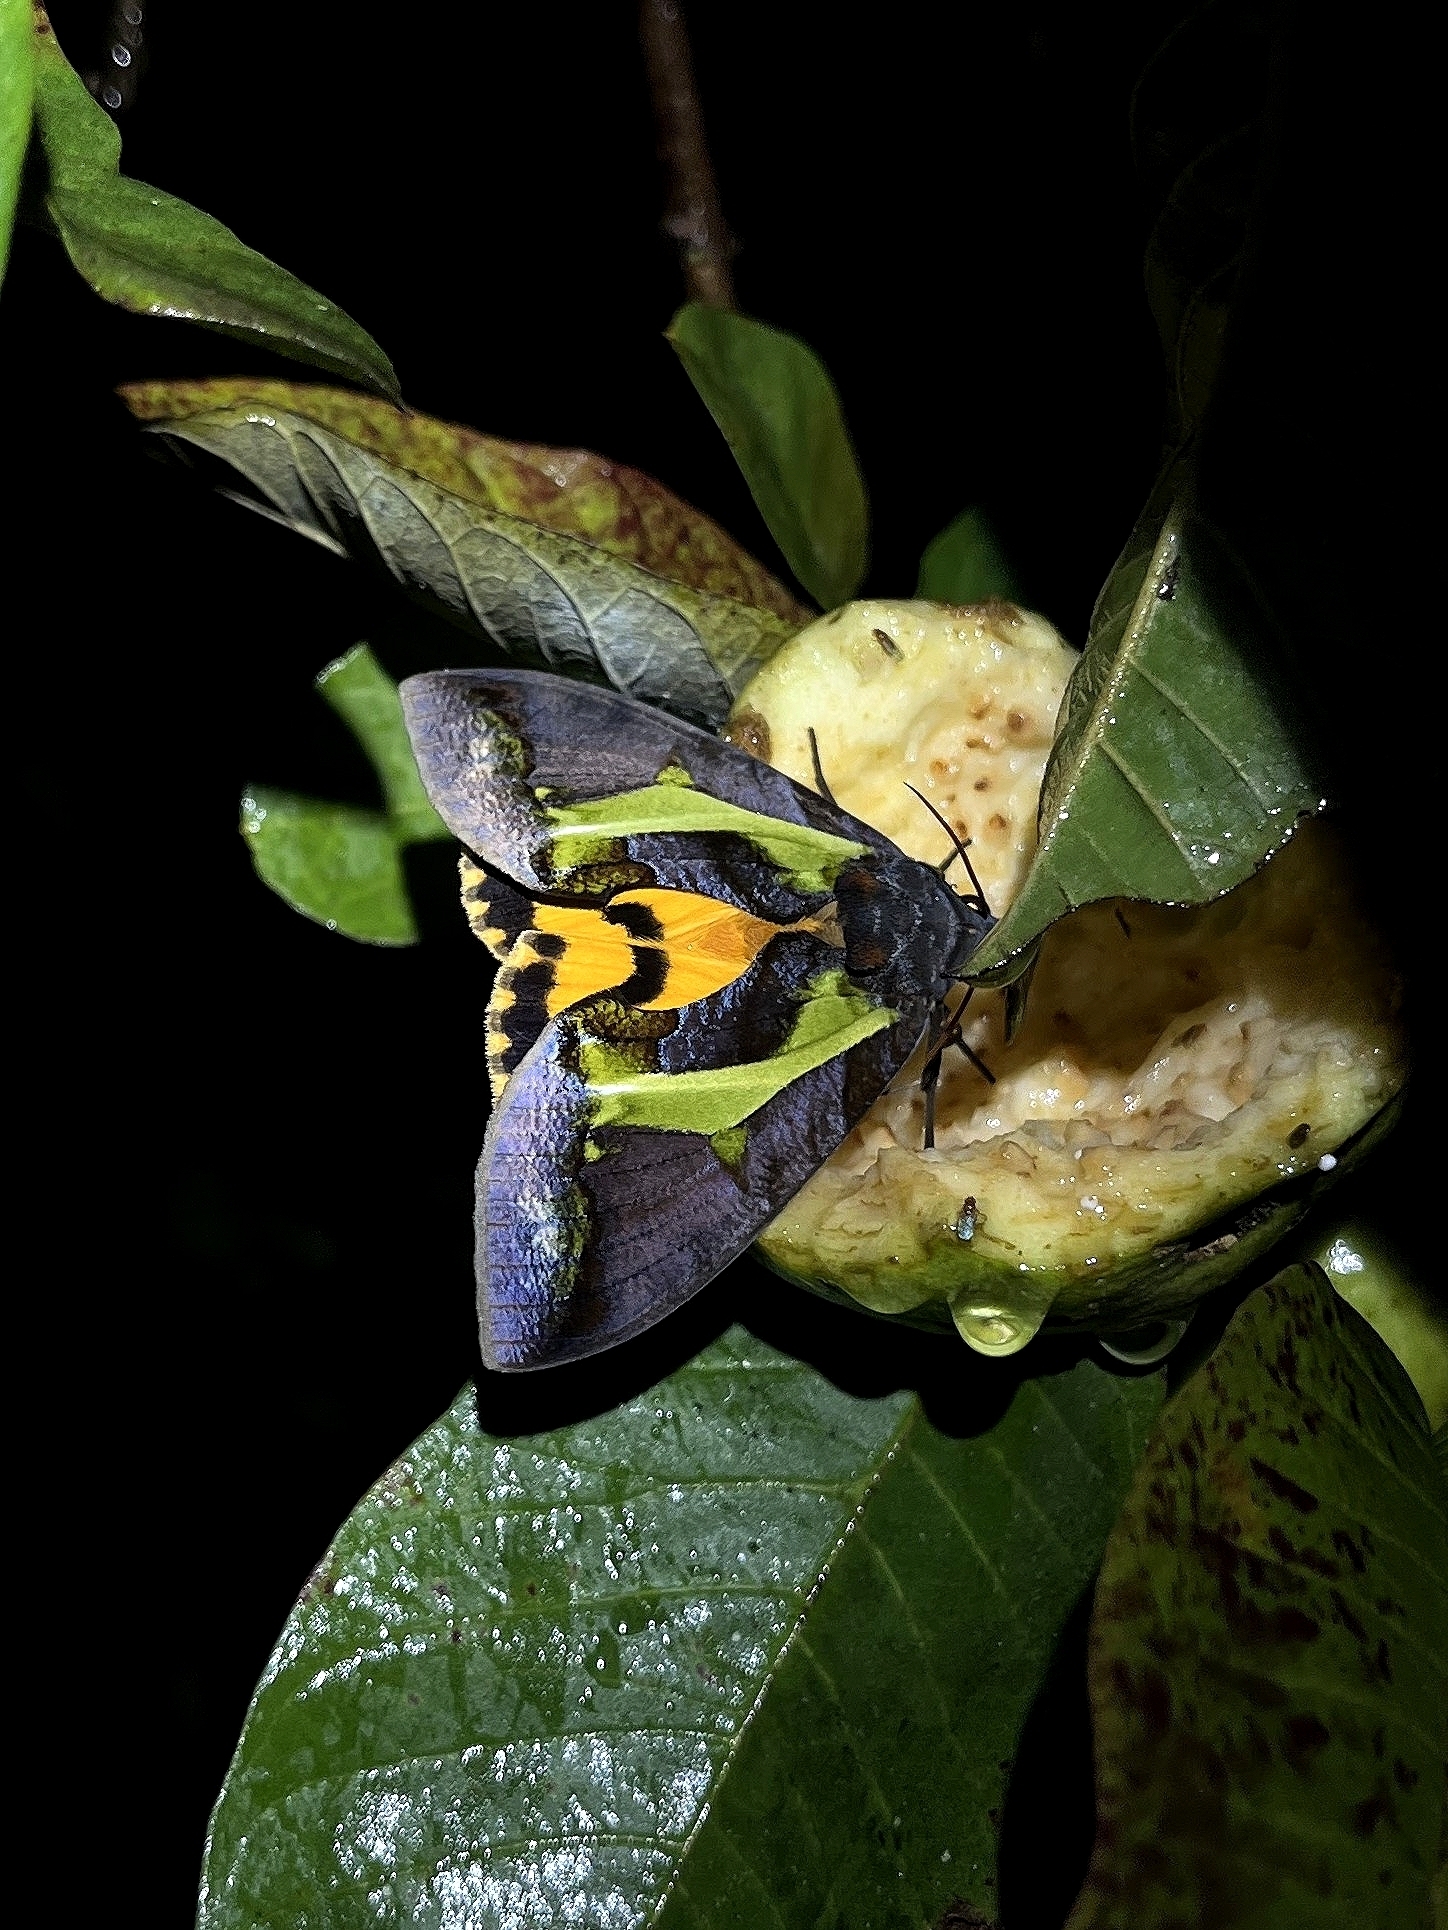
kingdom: Animalia
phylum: Arthropoda
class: Insecta
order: Lepidoptera
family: Erebidae
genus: Eudocima
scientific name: Eudocima homaena
